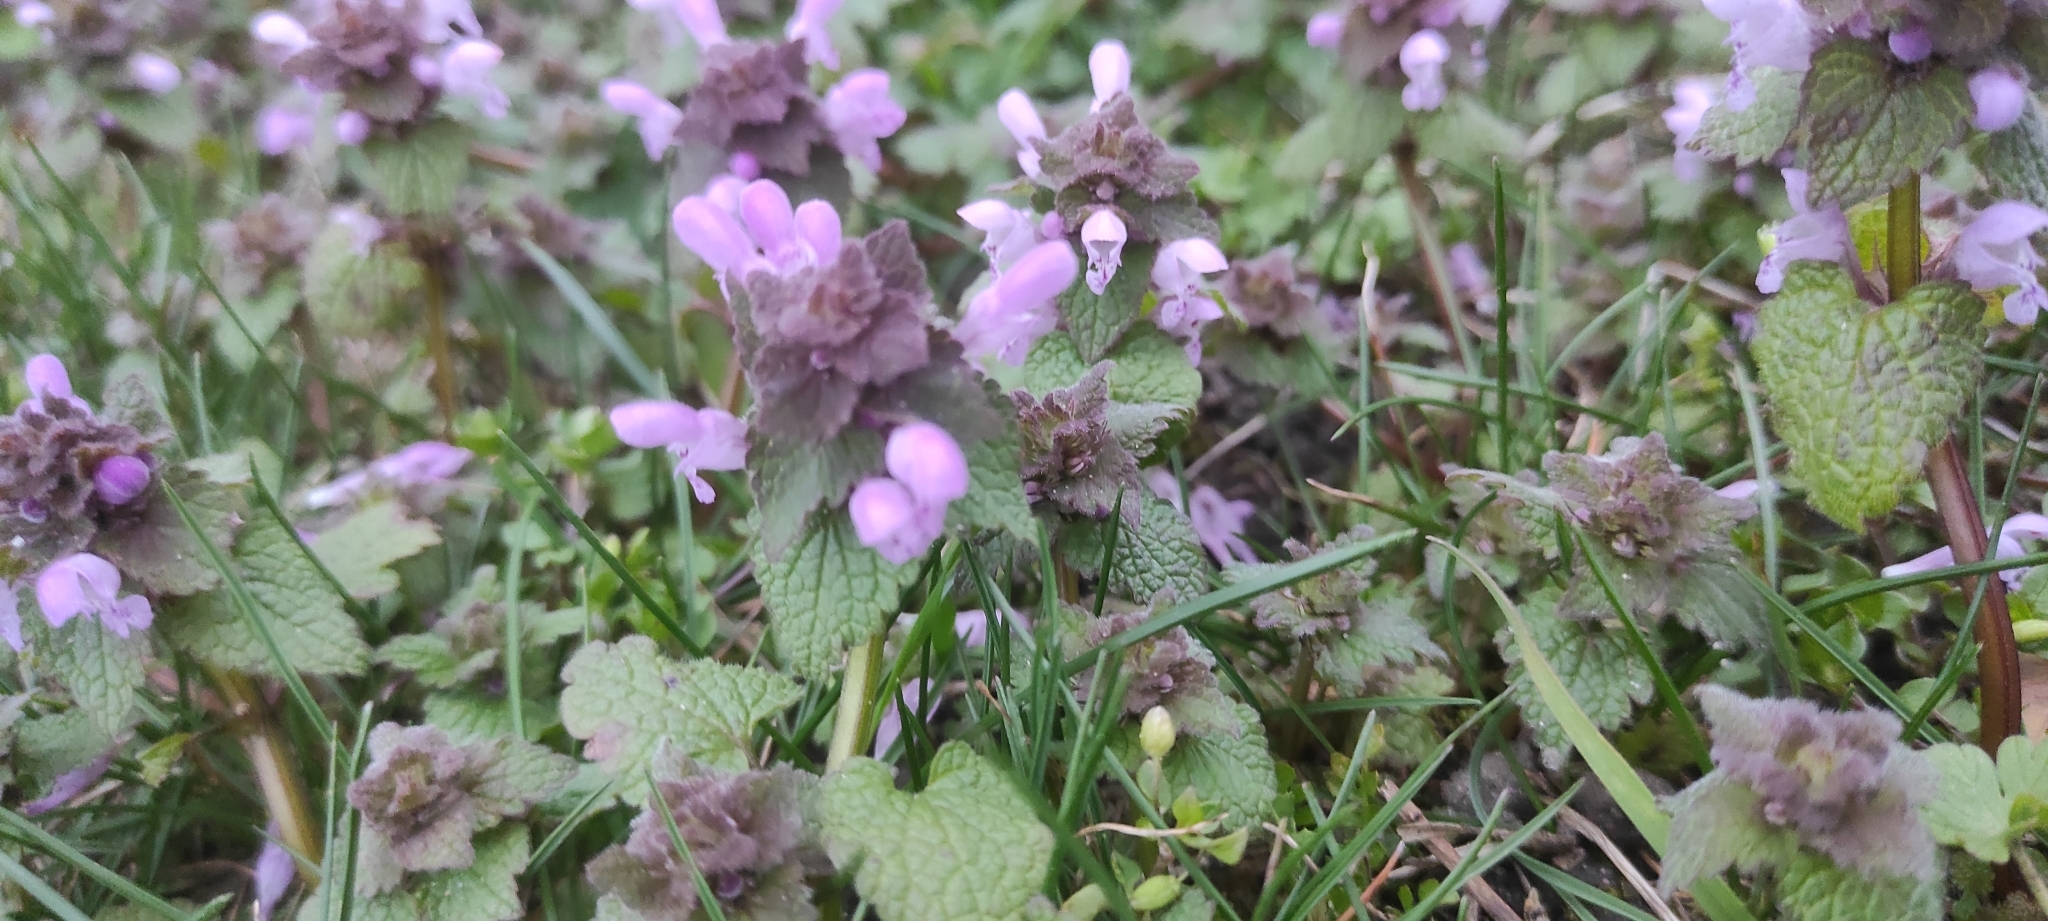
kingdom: Plantae
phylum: Tracheophyta
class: Magnoliopsida
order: Lamiales
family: Lamiaceae
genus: Lamium
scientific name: Lamium purpureum
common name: Red dead-nettle
